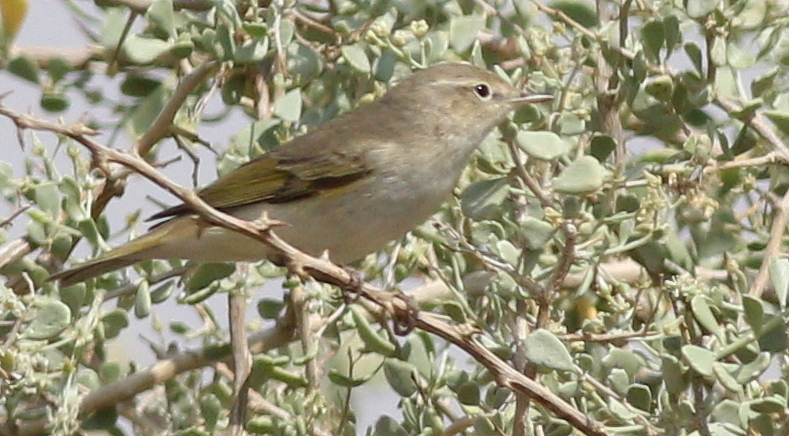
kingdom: Animalia
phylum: Chordata
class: Aves
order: Passeriformes
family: Phylloscopidae
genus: Phylloscopus
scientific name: Phylloscopus orientalis
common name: Eastern bonelli's warbler
